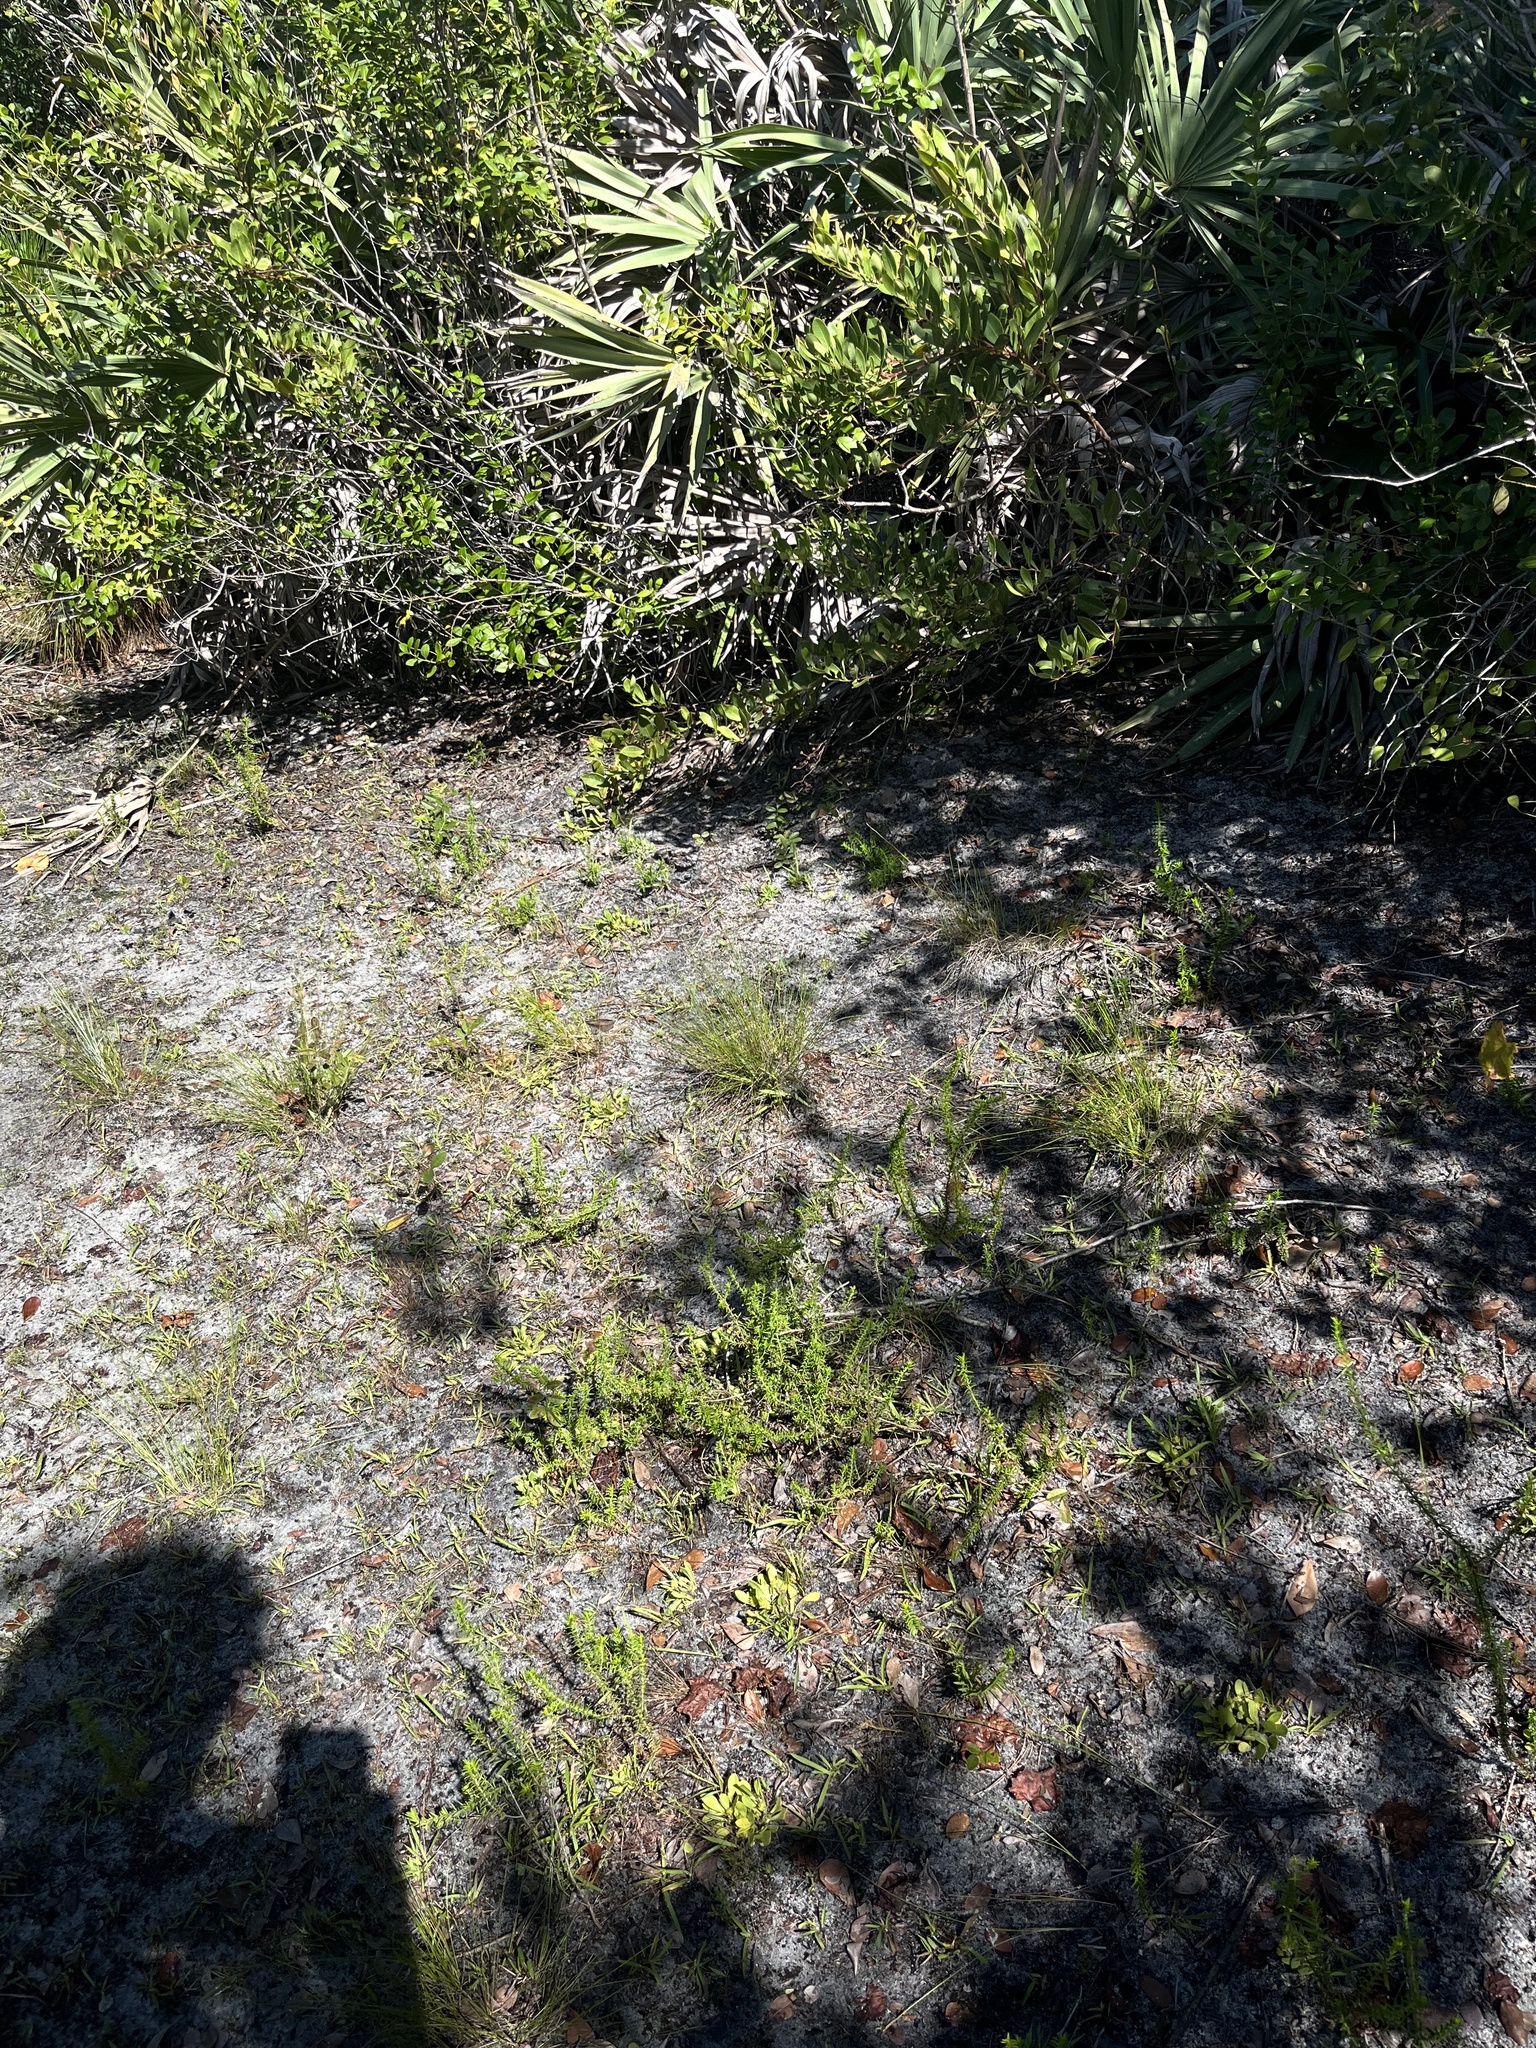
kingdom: Plantae
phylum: Tracheophyta
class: Magnoliopsida
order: Fabales
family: Polygalaceae
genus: Polygala
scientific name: Polygala nana
